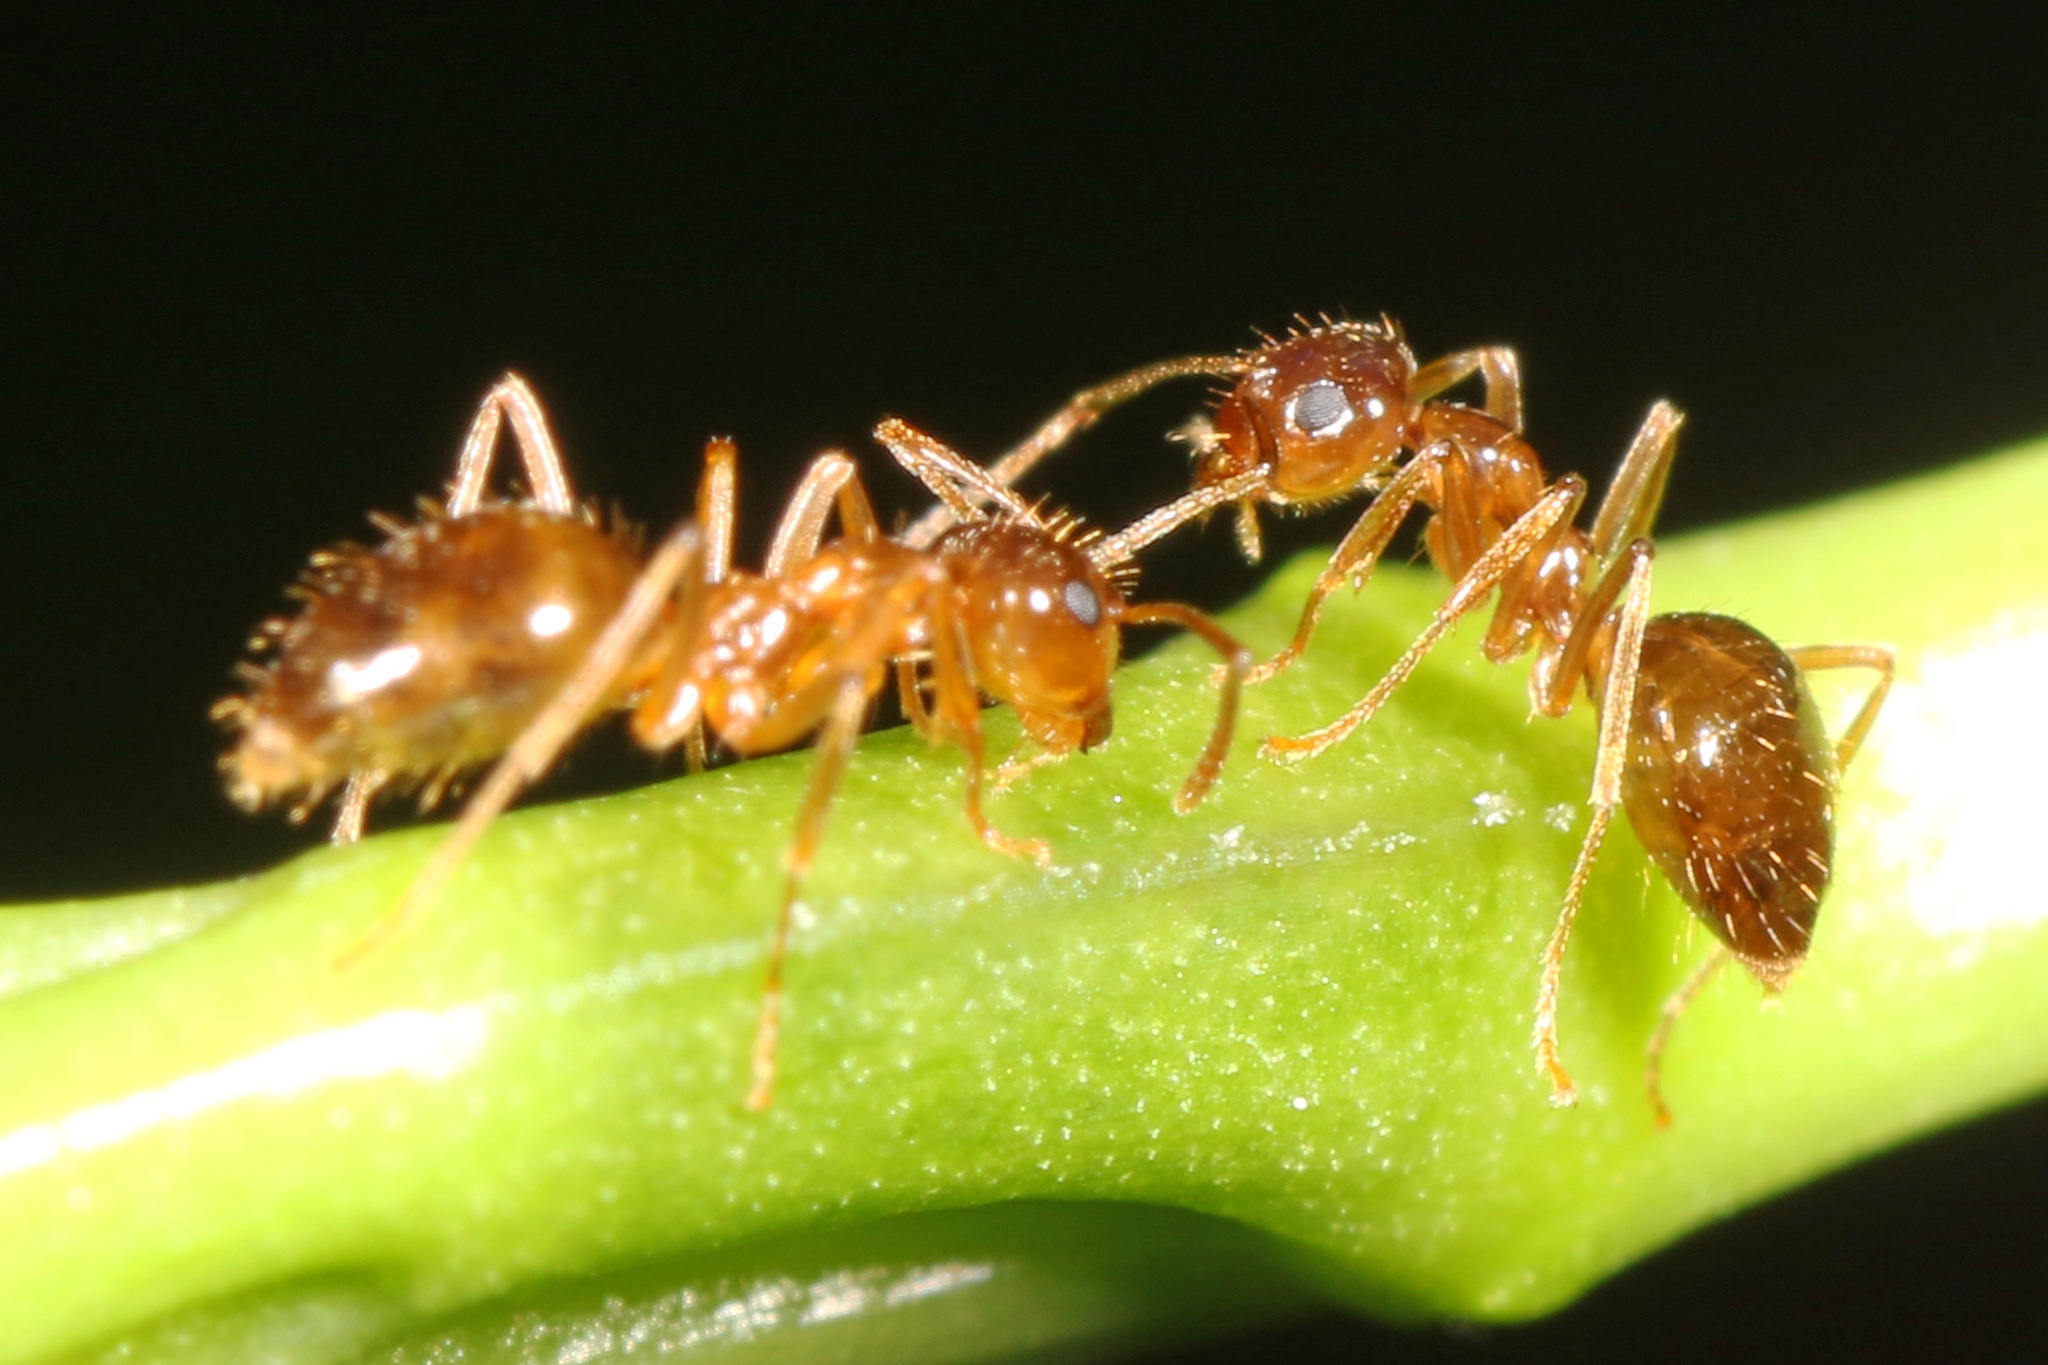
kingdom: Animalia
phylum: Arthropoda
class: Insecta
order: Hymenoptera
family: Formicidae
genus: Prenolepis
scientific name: Prenolepis imparis
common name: Small honey ant
